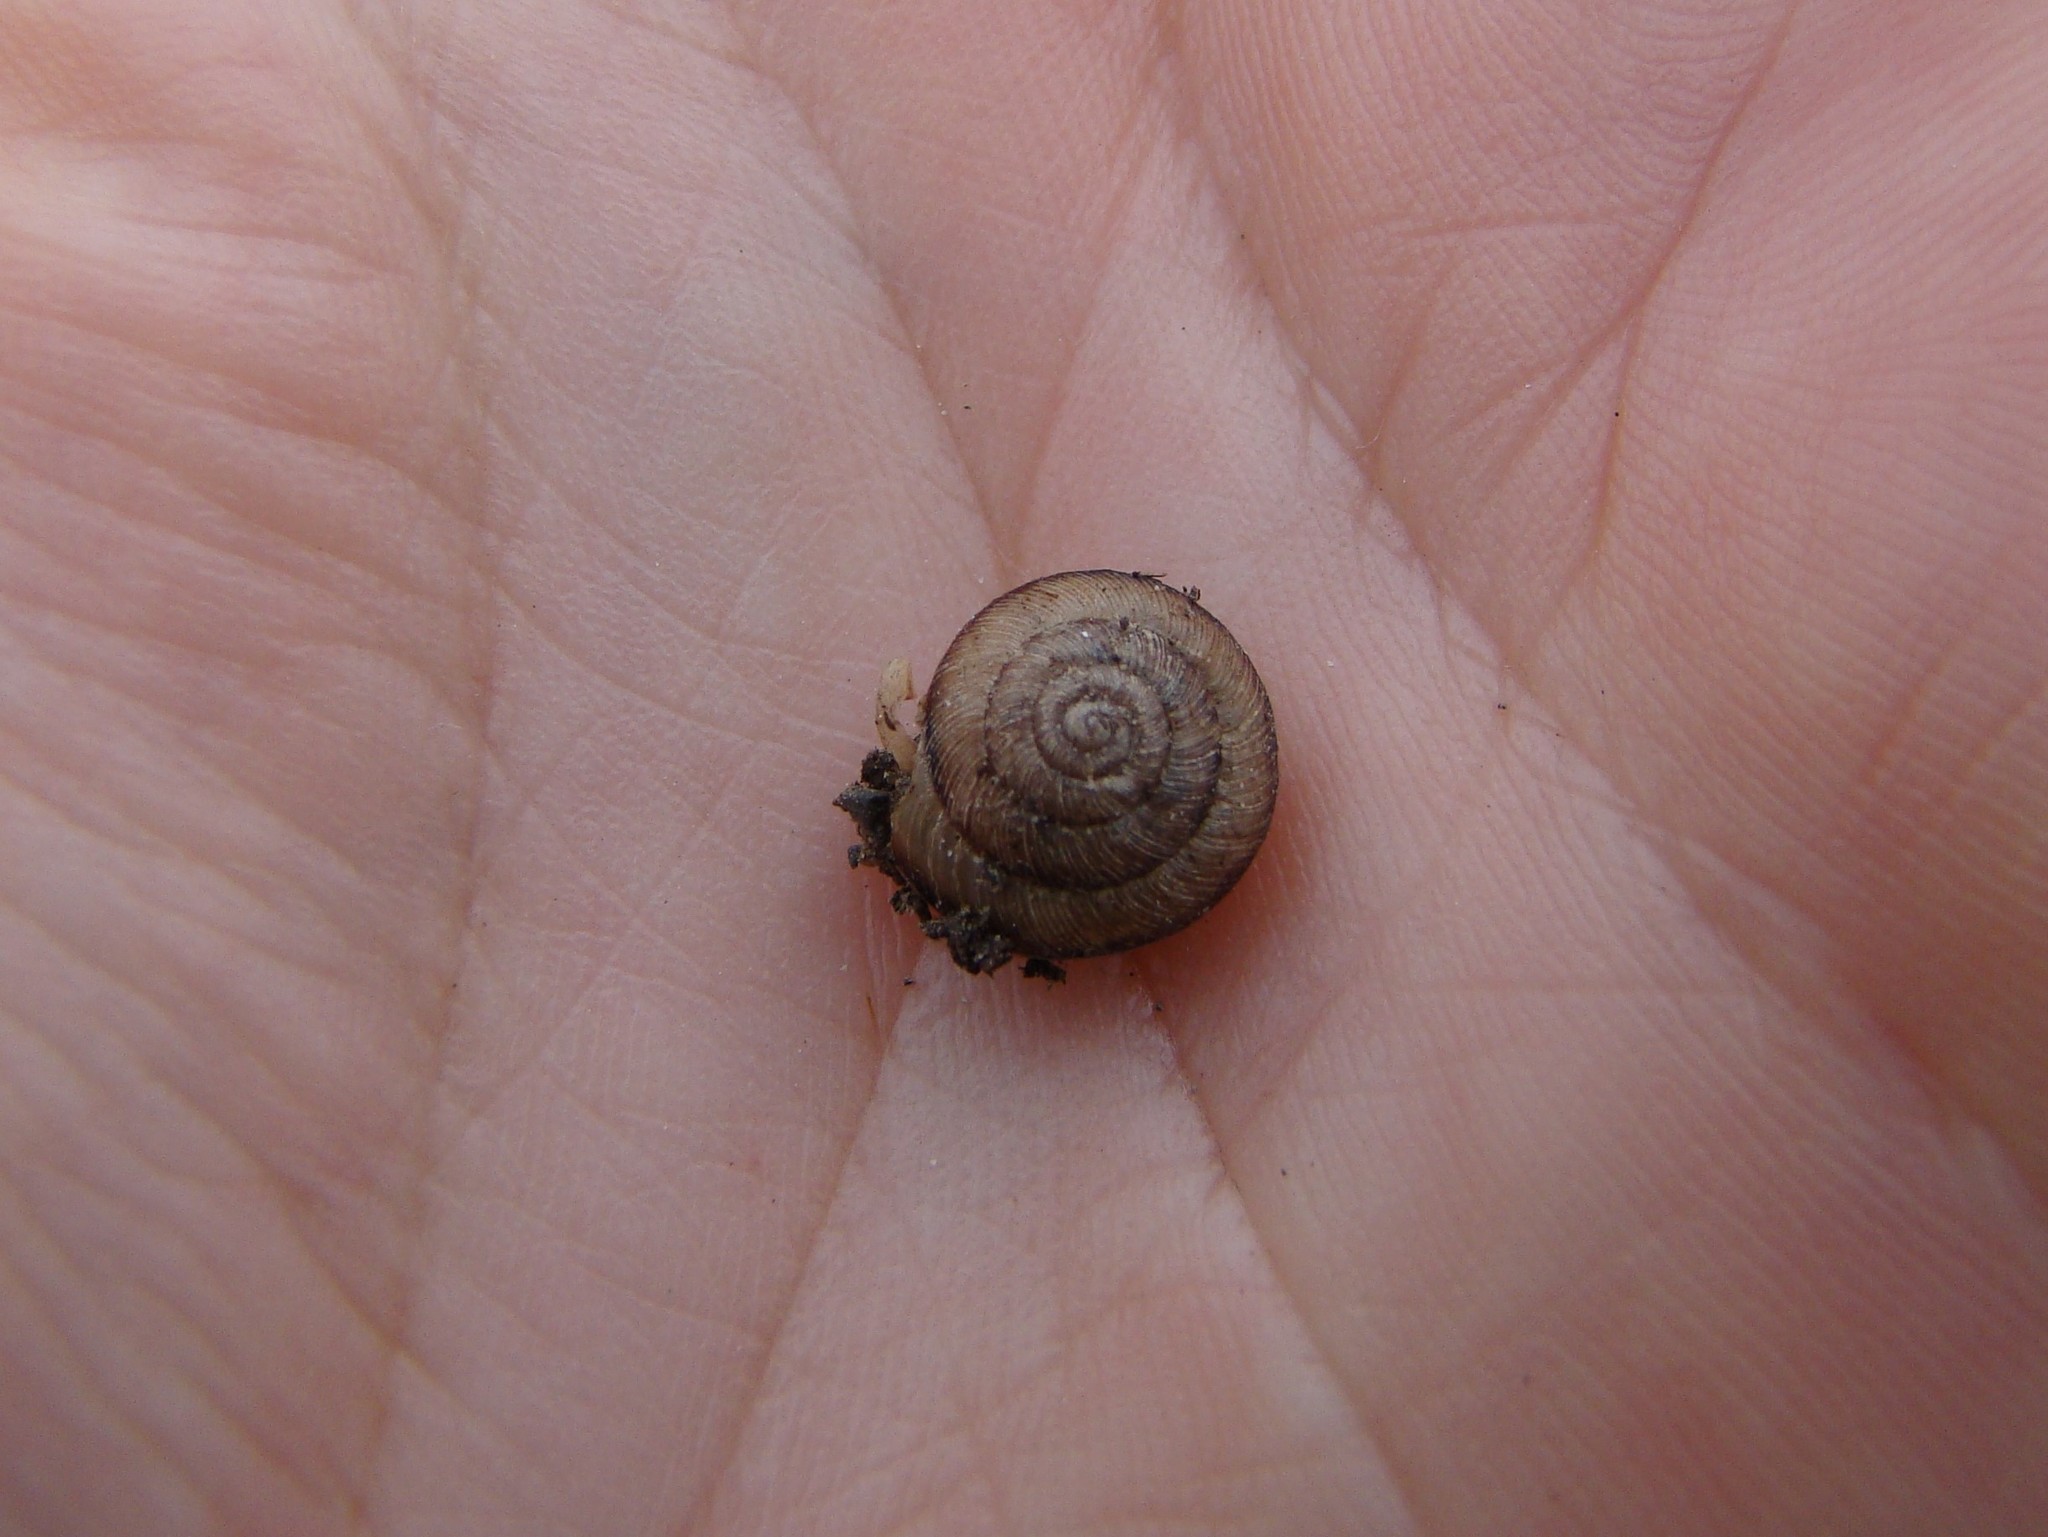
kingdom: Animalia
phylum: Mollusca
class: Gastropoda
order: Stylommatophora
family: Geomitridae
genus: Xeroplexa
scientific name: Xeroplexa intersecta
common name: Wrinkled snail
